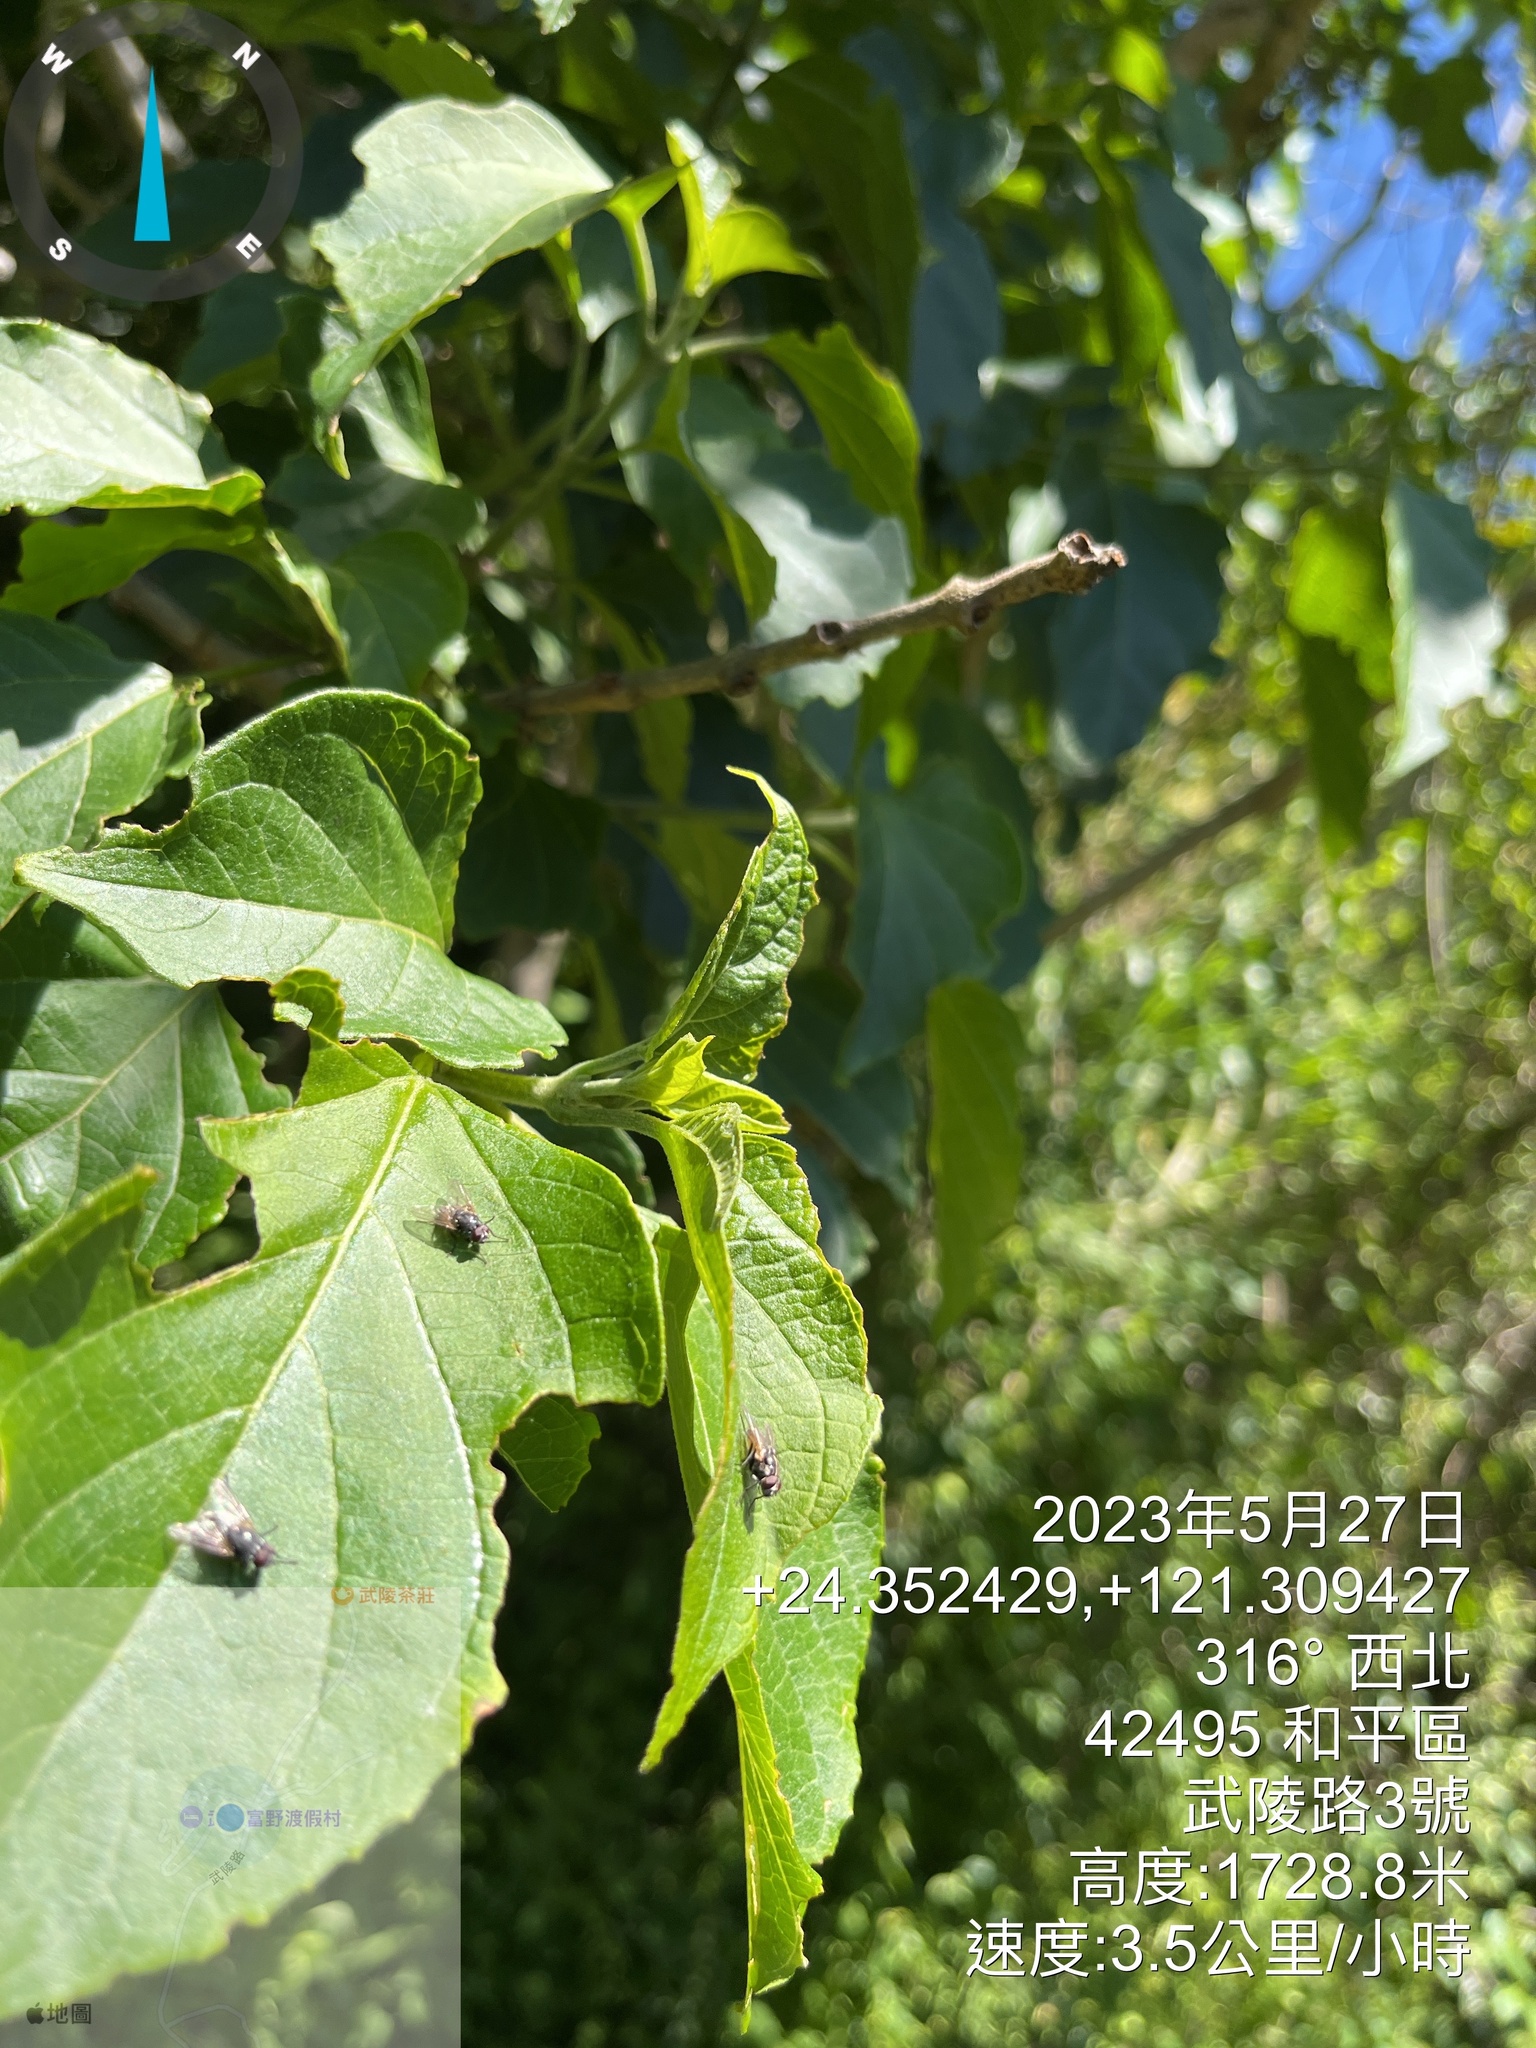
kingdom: Plantae
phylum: Tracheophyta
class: Magnoliopsida
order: Lamiales
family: Lamiaceae
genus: Clerodendrum
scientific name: Clerodendrum trichotomum
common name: Harlequin glorybower
